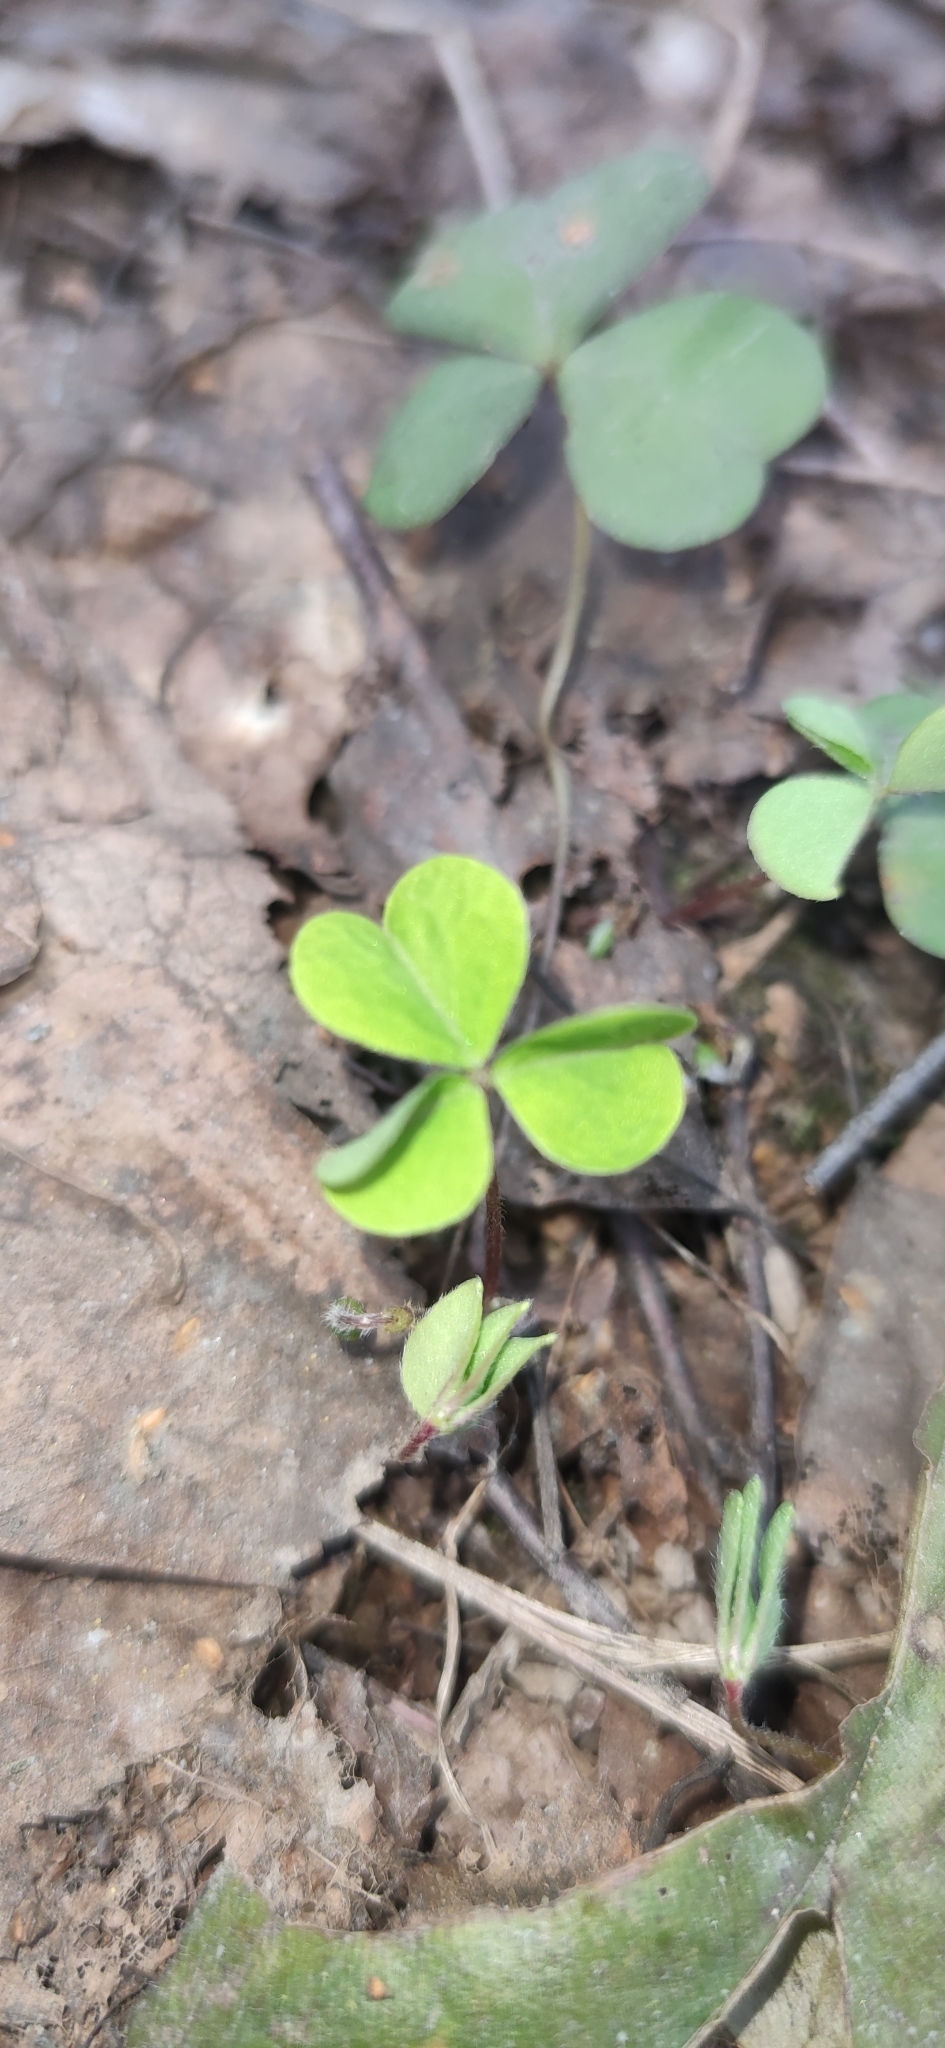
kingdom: Plantae
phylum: Tracheophyta
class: Magnoliopsida
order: Oxalidales
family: Oxalidaceae
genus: Oxalis
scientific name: Oxalis acetosella
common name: Wood-sorrel
